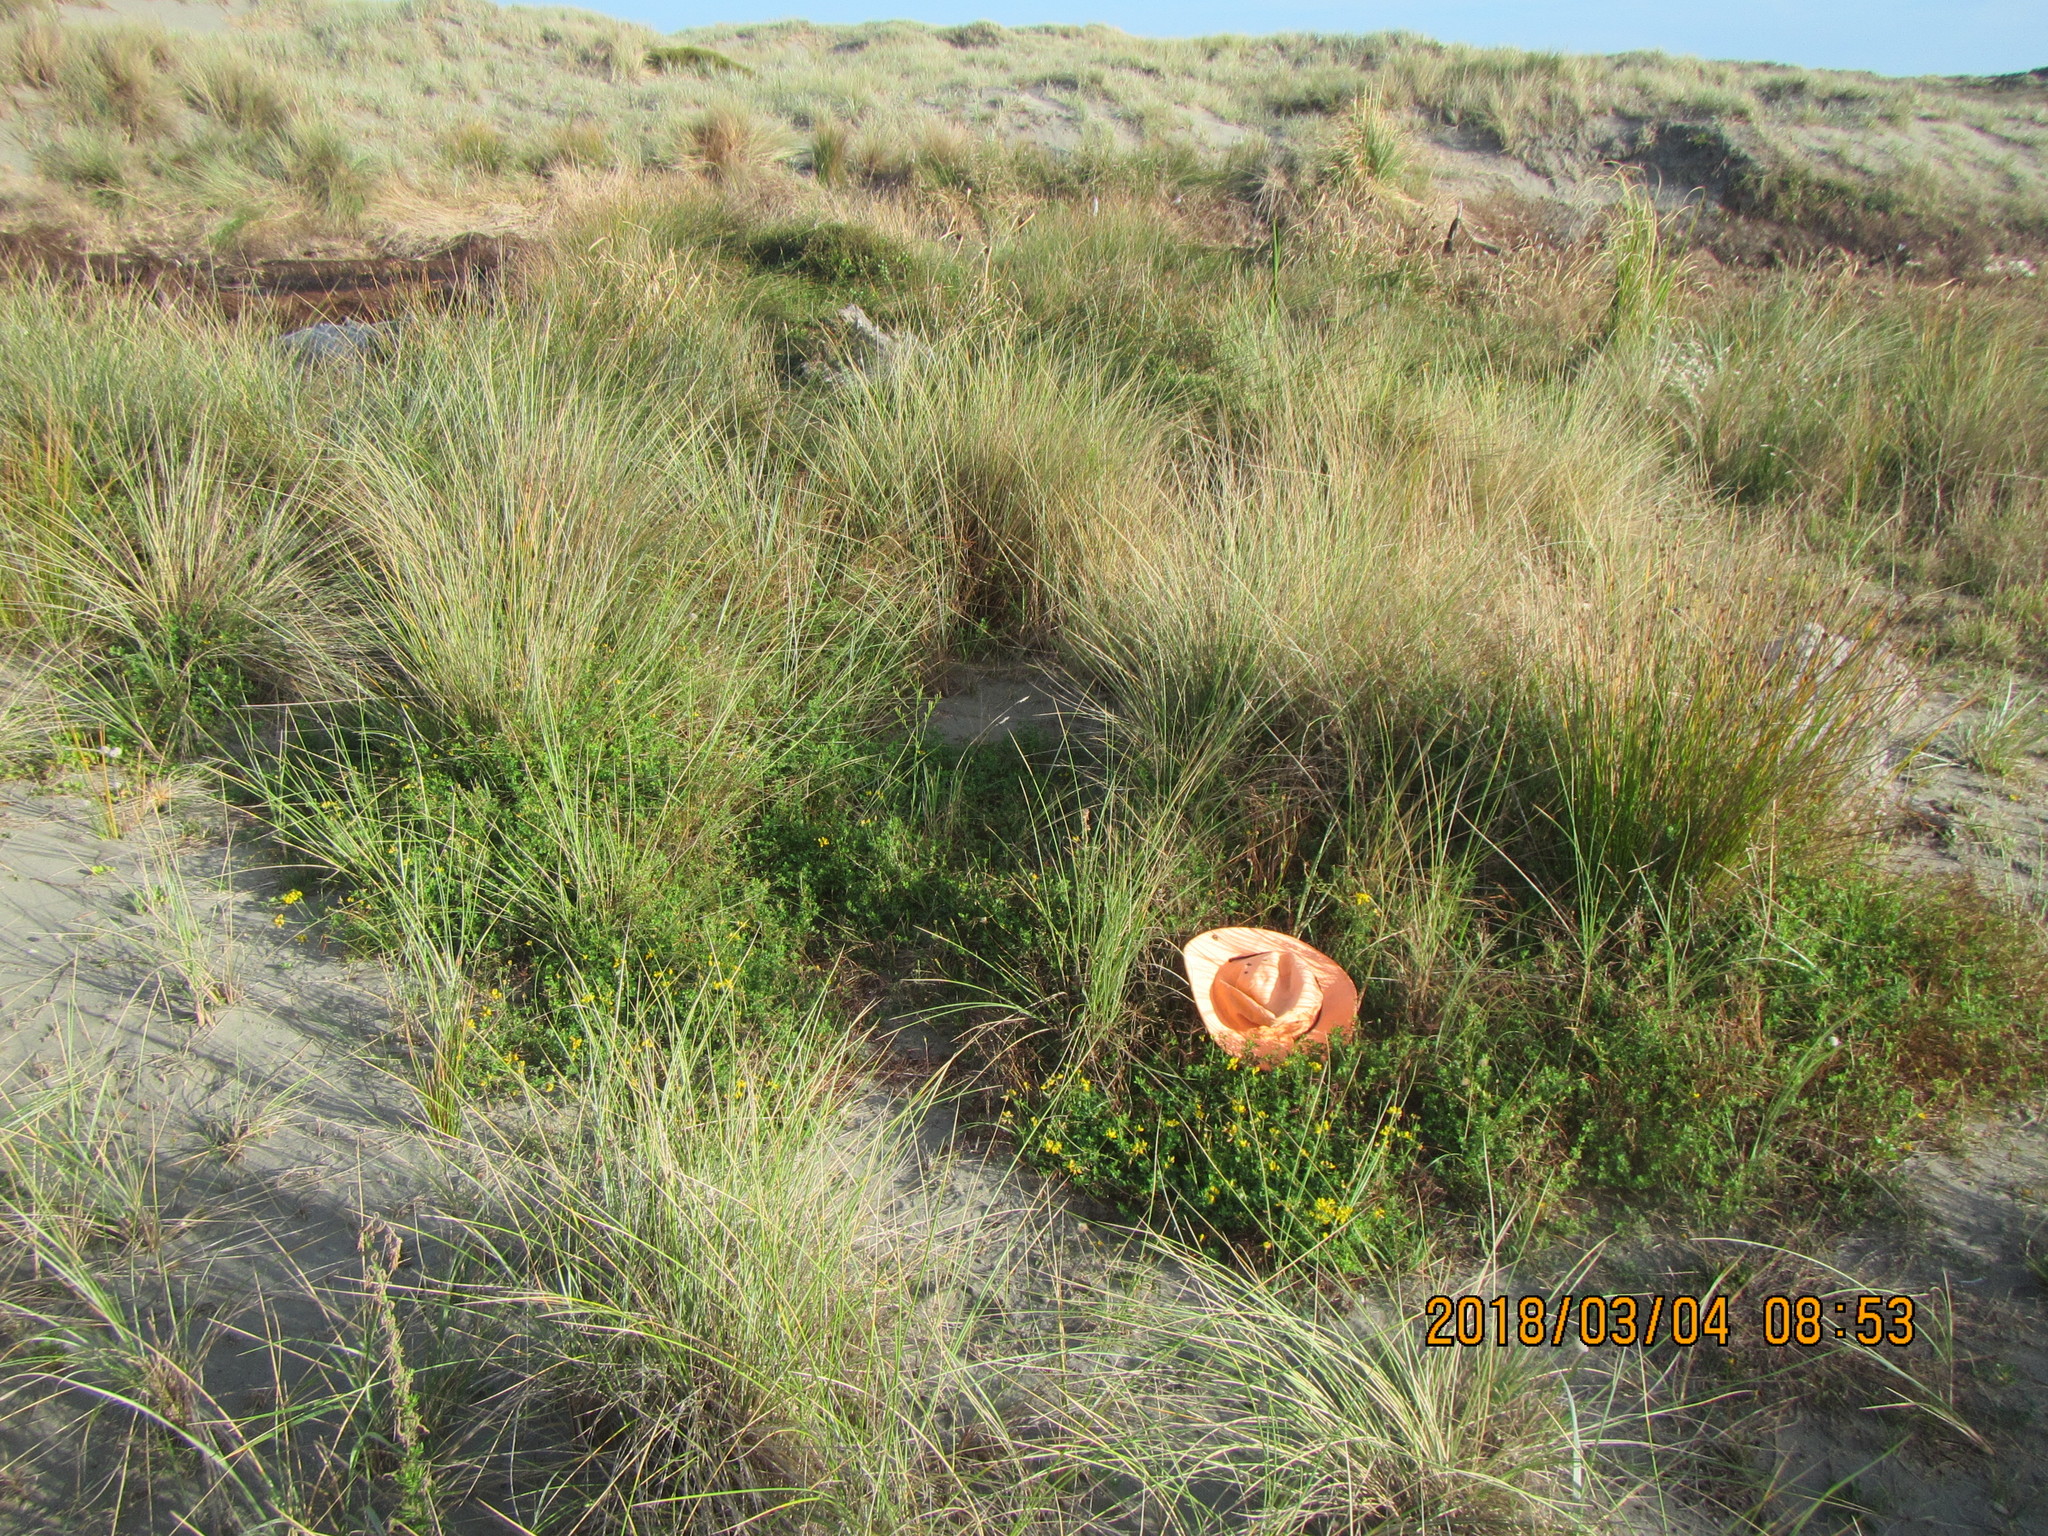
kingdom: Plantae
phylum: Tracheophyta
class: Magnoliopsida
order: Fabales
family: Fabaceae
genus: Lotus
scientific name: Lotus corniculatus
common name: Common bird's-foot-trefoil
